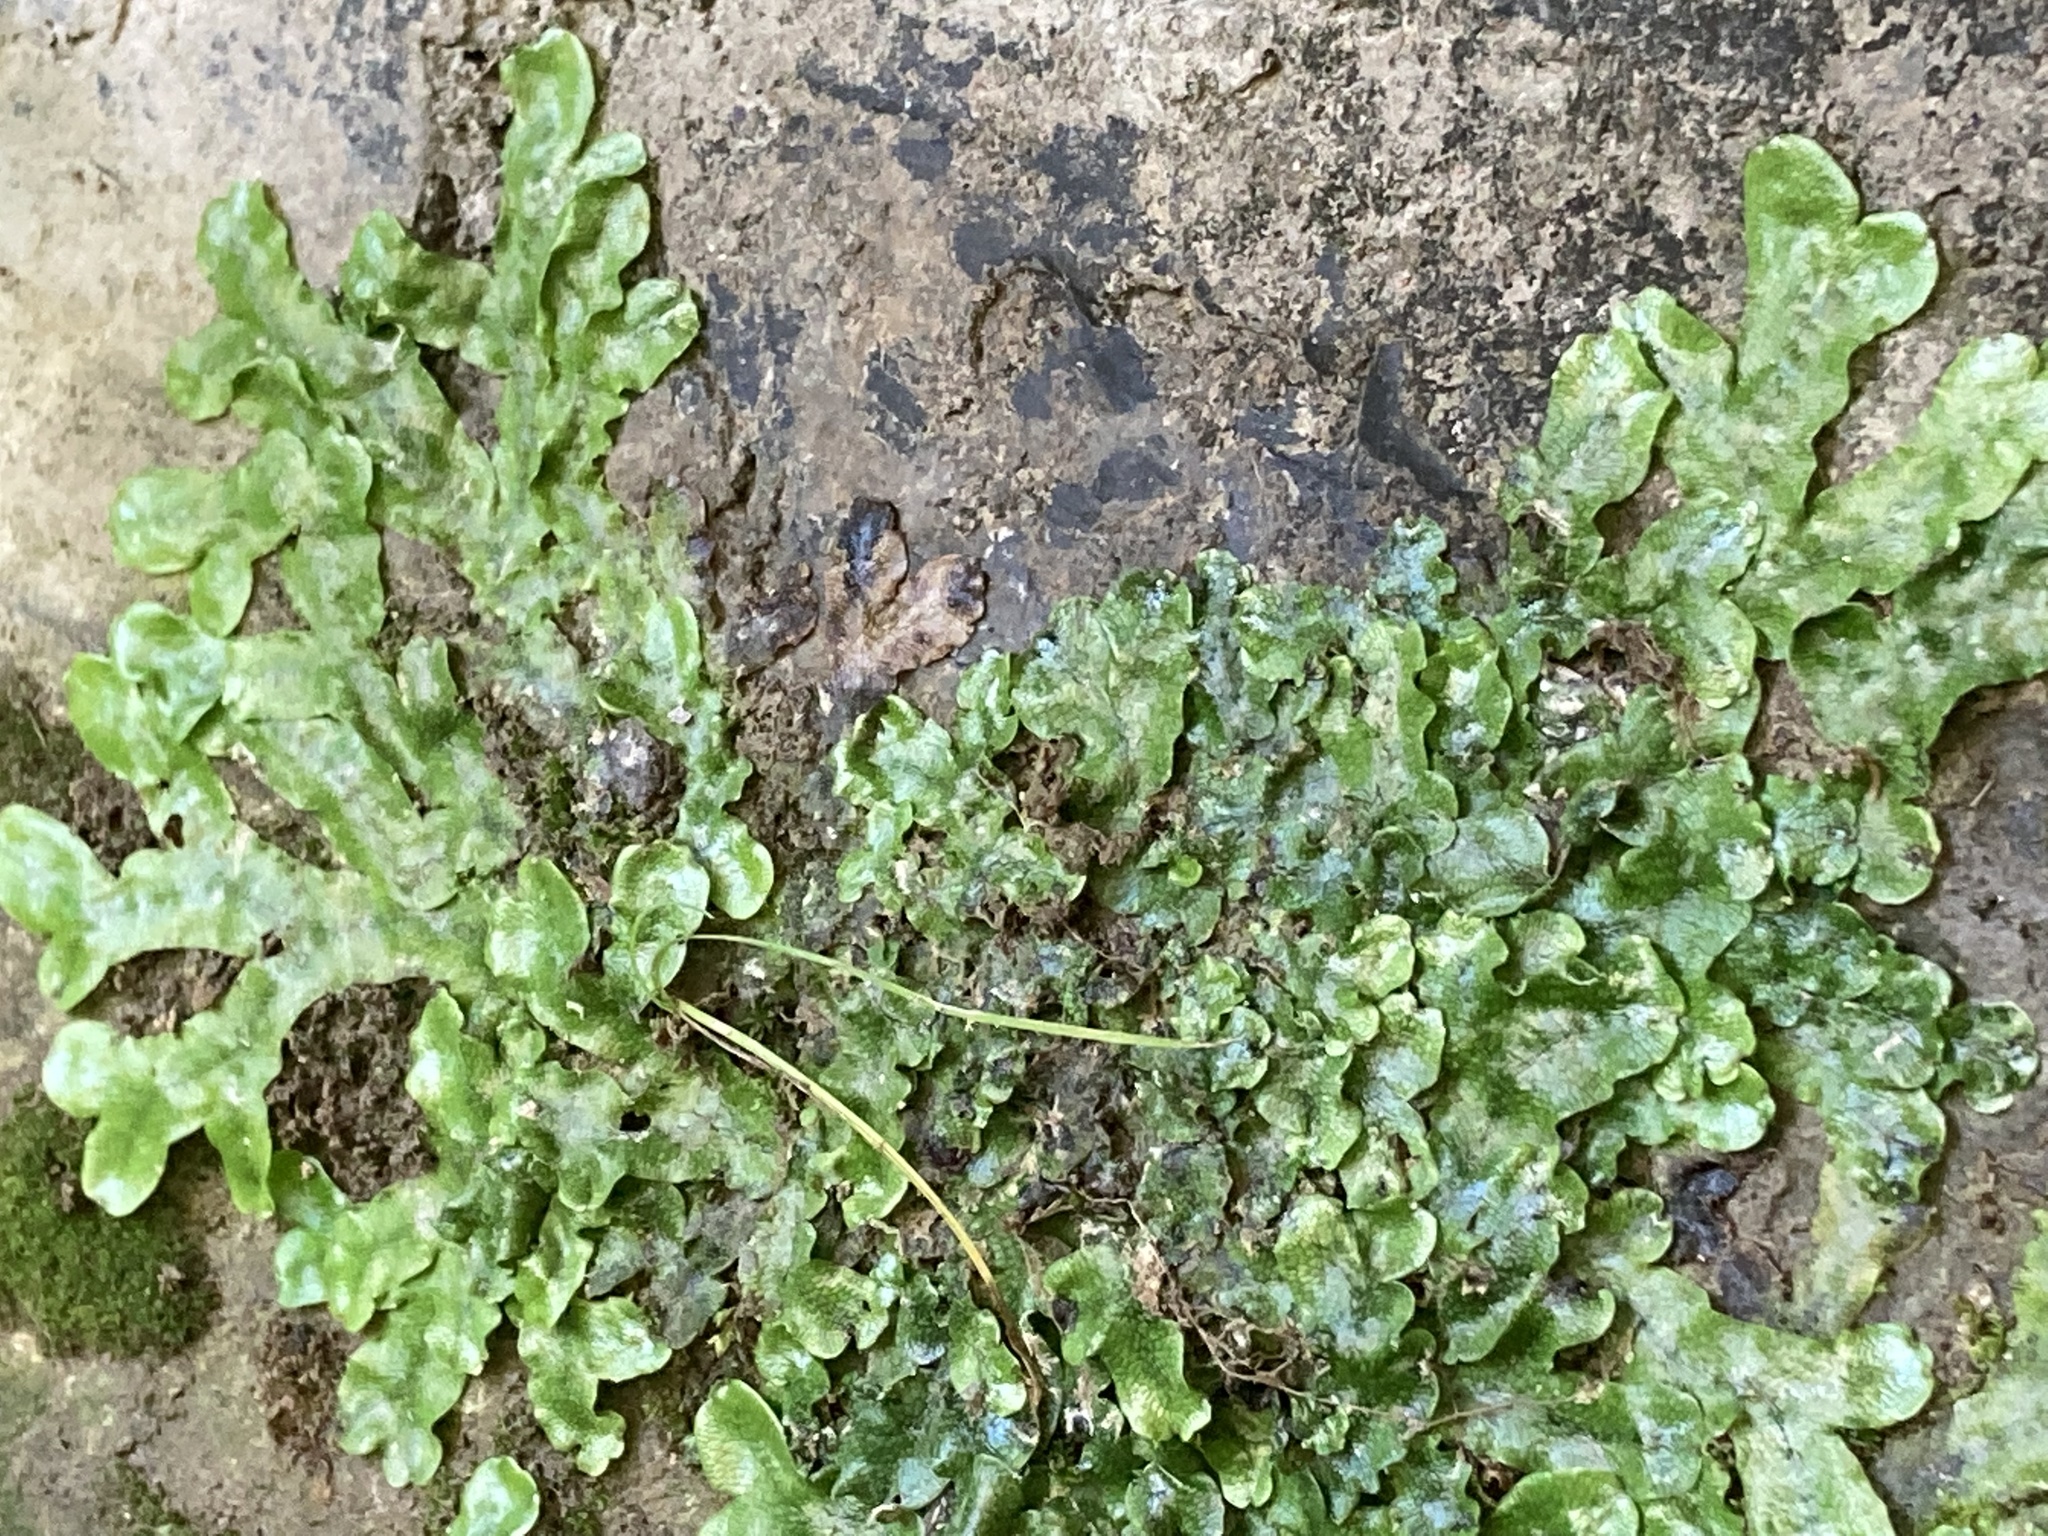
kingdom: Plantae
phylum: Marchantiophyta
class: Marchantiopsida
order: Marchantiales
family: Conocephalaceae
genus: Conocephalum
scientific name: Conocephalum conicum
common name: Great scented liverwort
